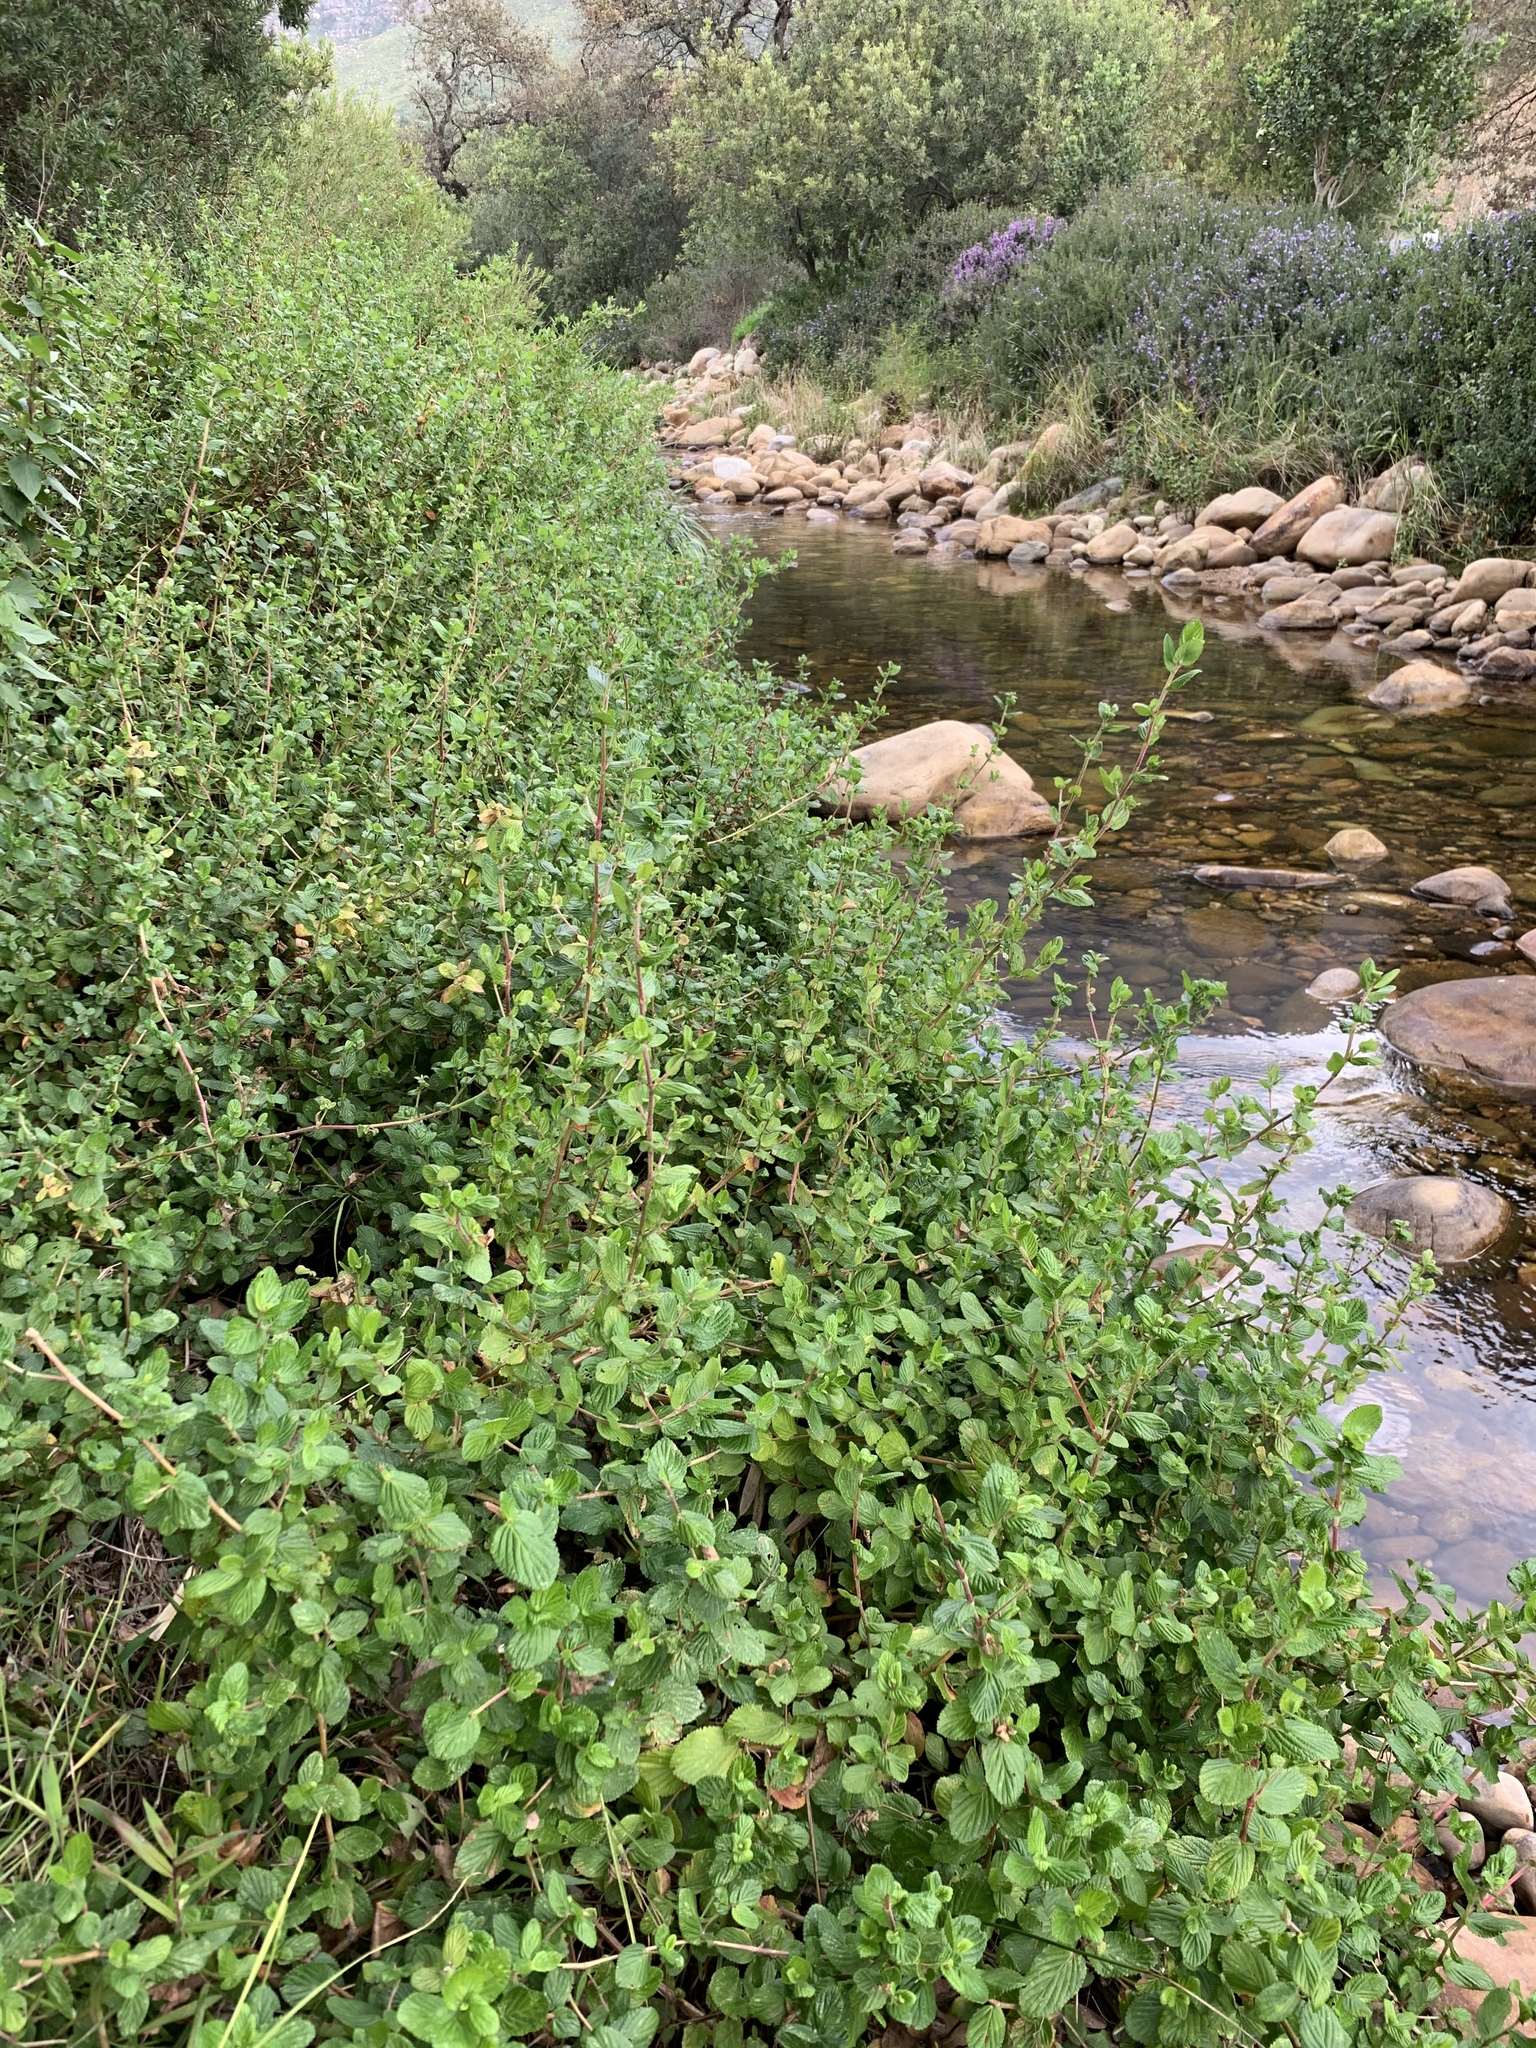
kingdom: Plantae
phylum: Tracheophyta
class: Magnoliopsida
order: Rosales
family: Rosaceae
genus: Cliffortia
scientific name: Cliffortia odorata
